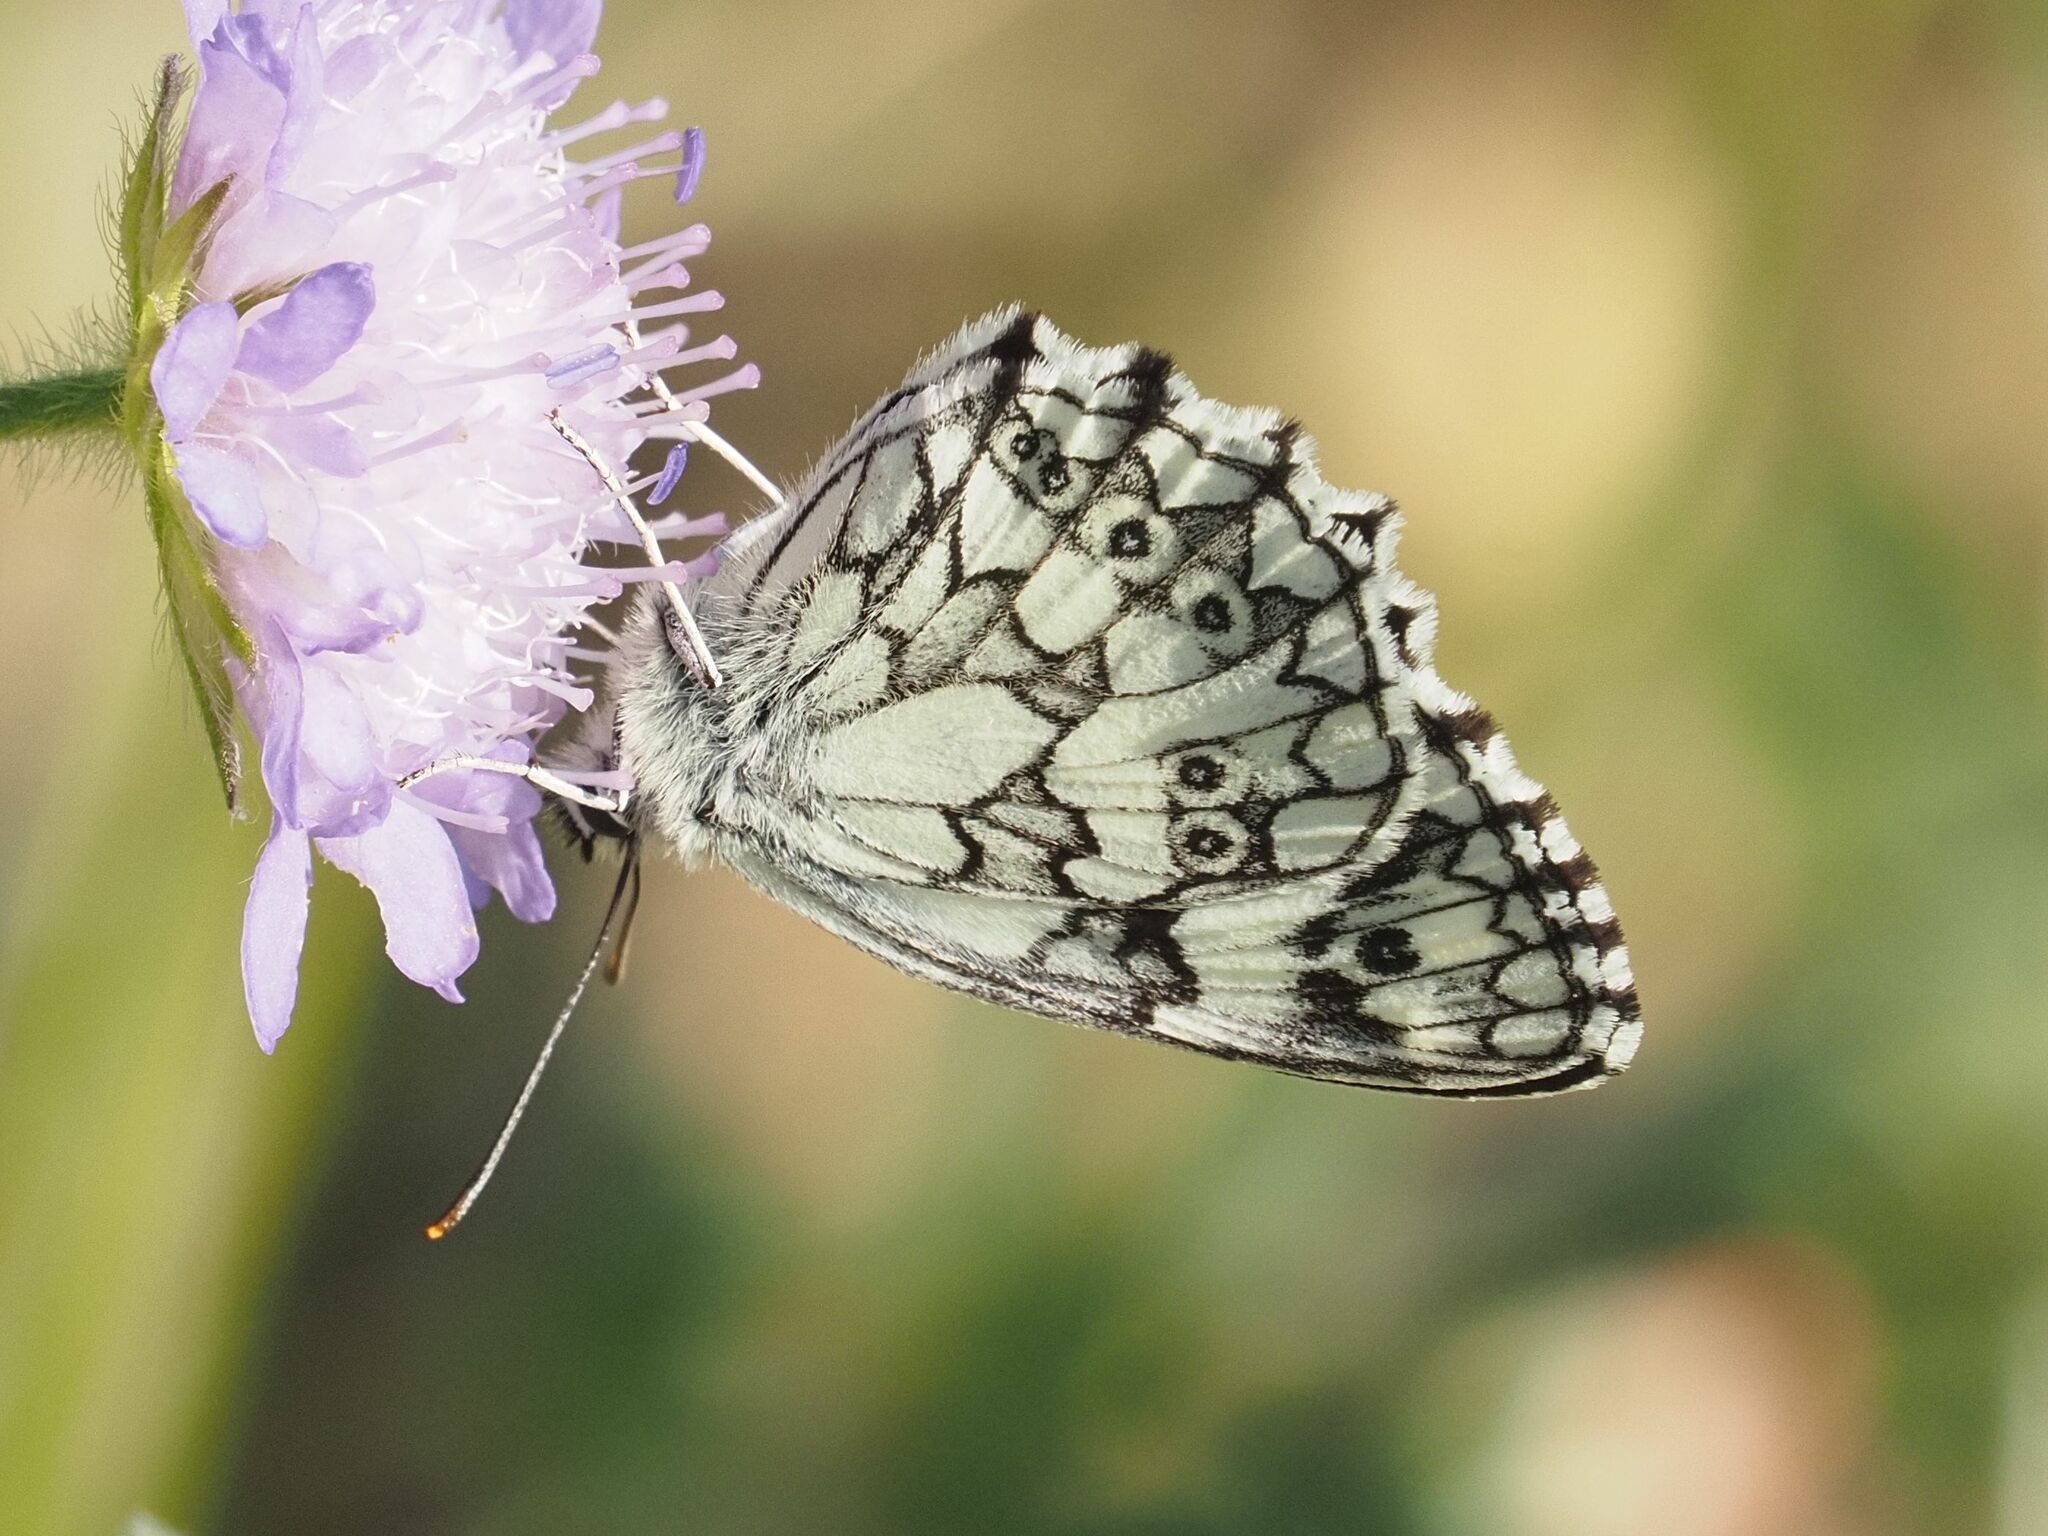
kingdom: Animalia
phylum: Arthropoda
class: Insecta
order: Lepidoptera
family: Nymphalidae
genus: Melanargia
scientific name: Melanargia galathea
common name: Marbled white
